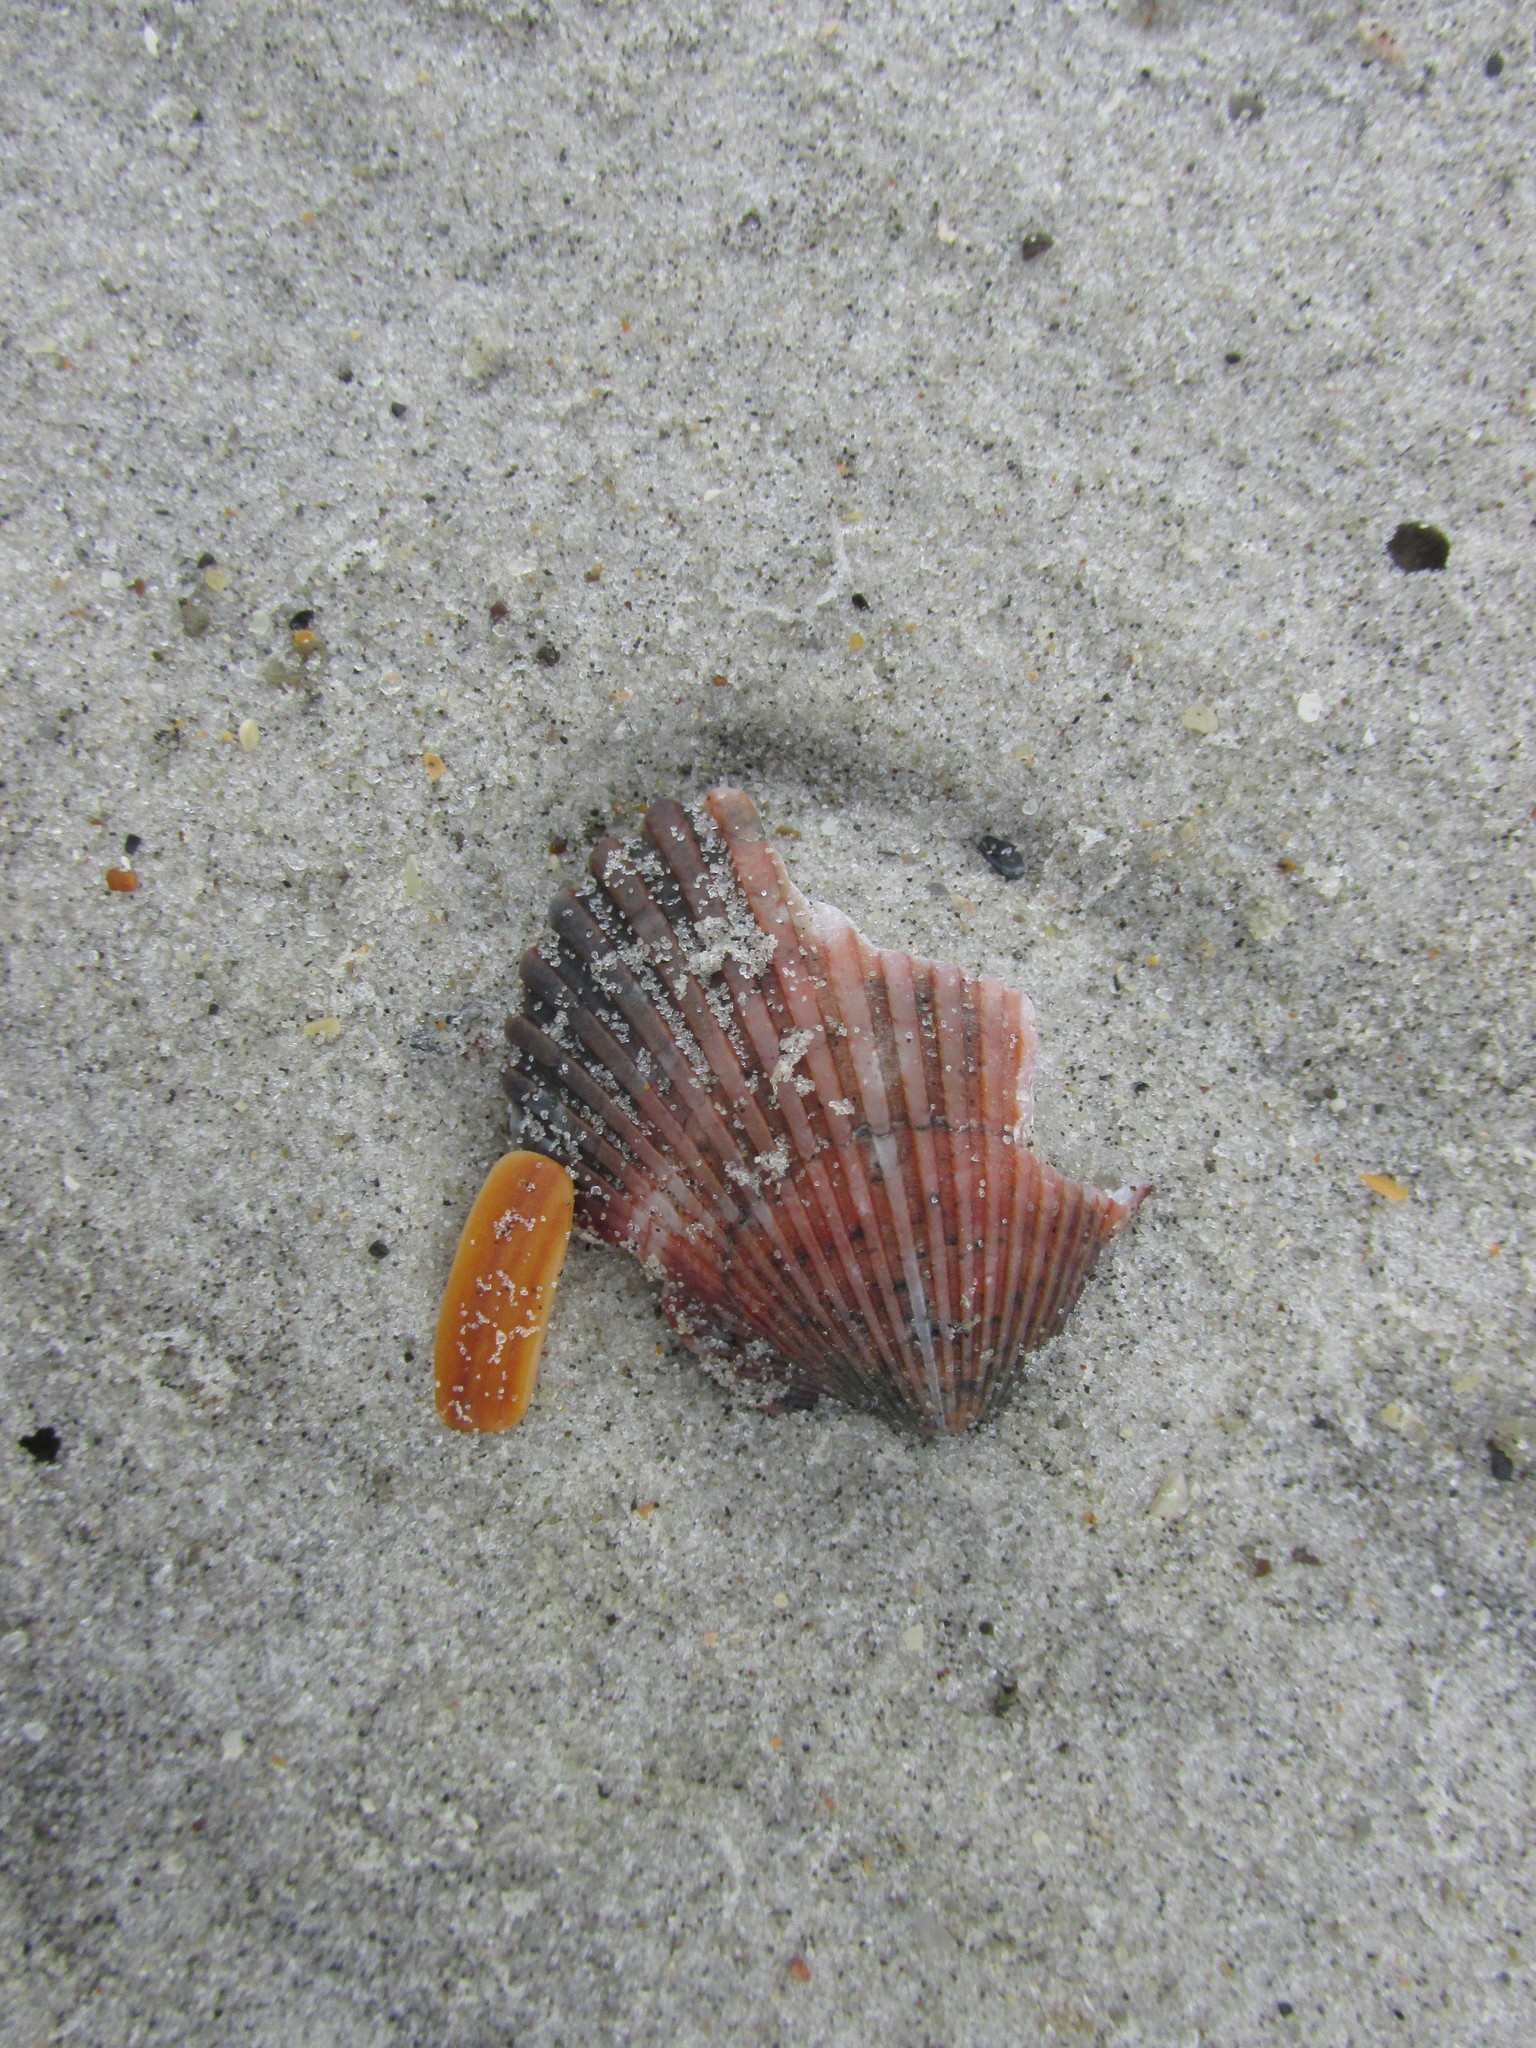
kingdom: Animalia
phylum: Mollusca
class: Bivalvia
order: Pectinida
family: Pectinidae
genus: Argopecten
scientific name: Argopecten gibbus
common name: Atlantic calico scallop
